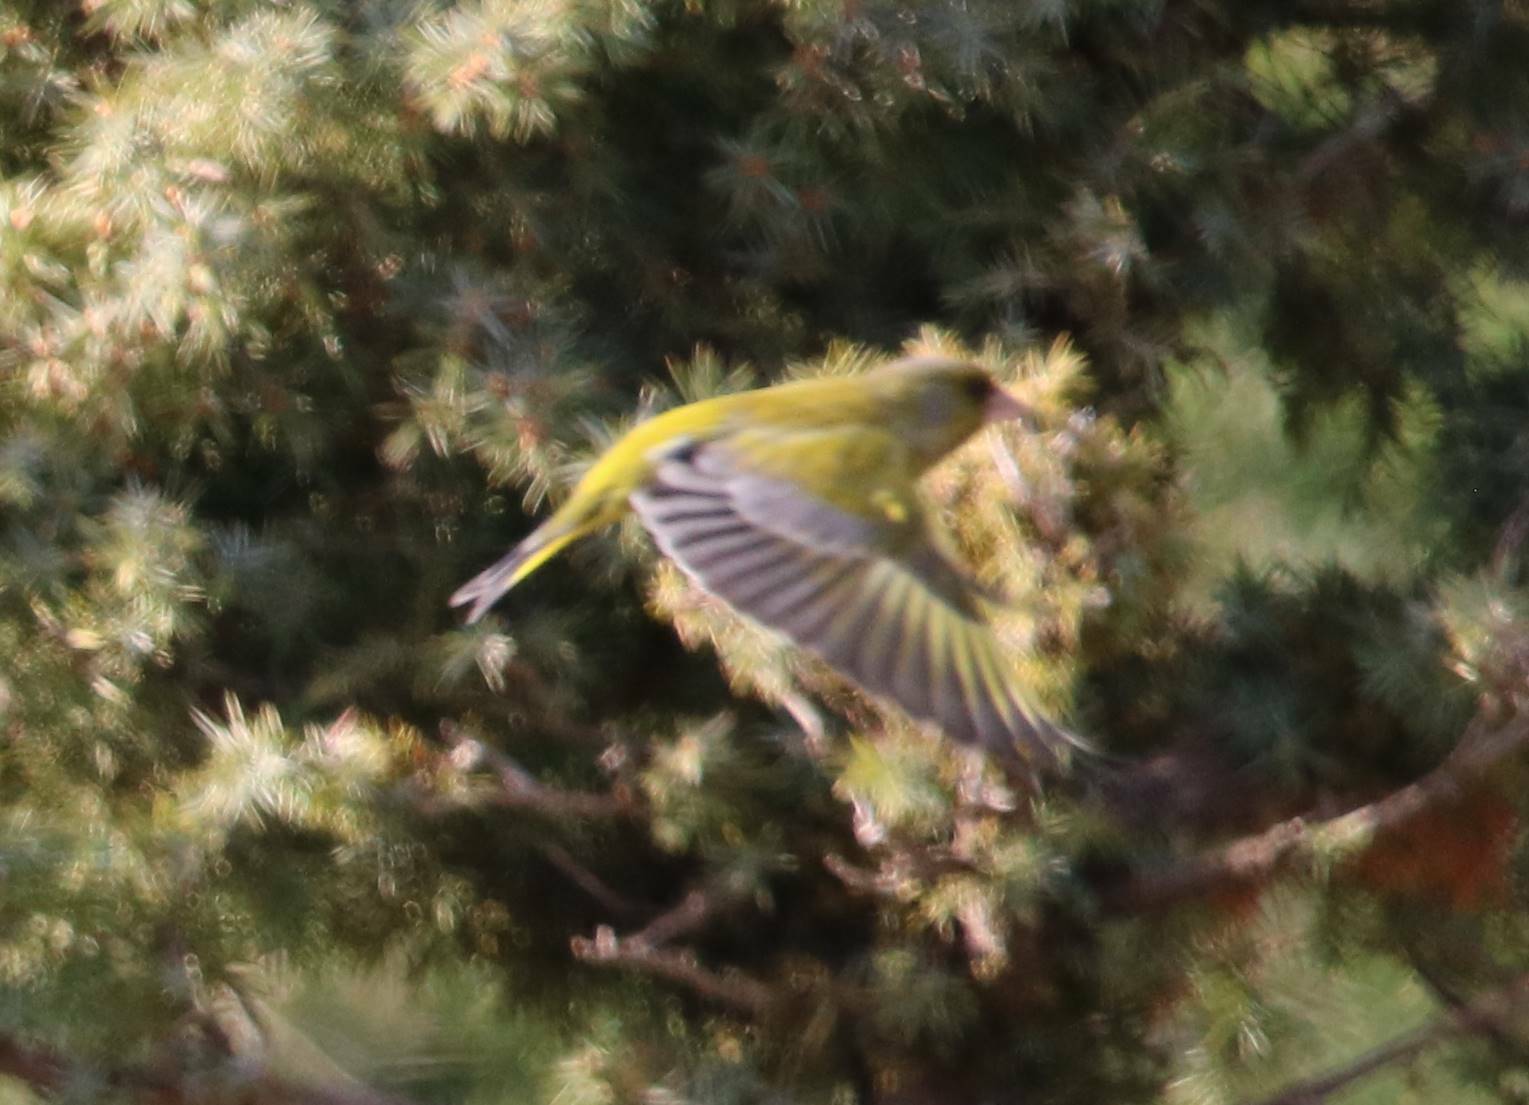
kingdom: Plantae
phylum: Tracheophyta
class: Liliopsida
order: Poales
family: Poaceae
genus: Chloris
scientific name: Chloris chloris
